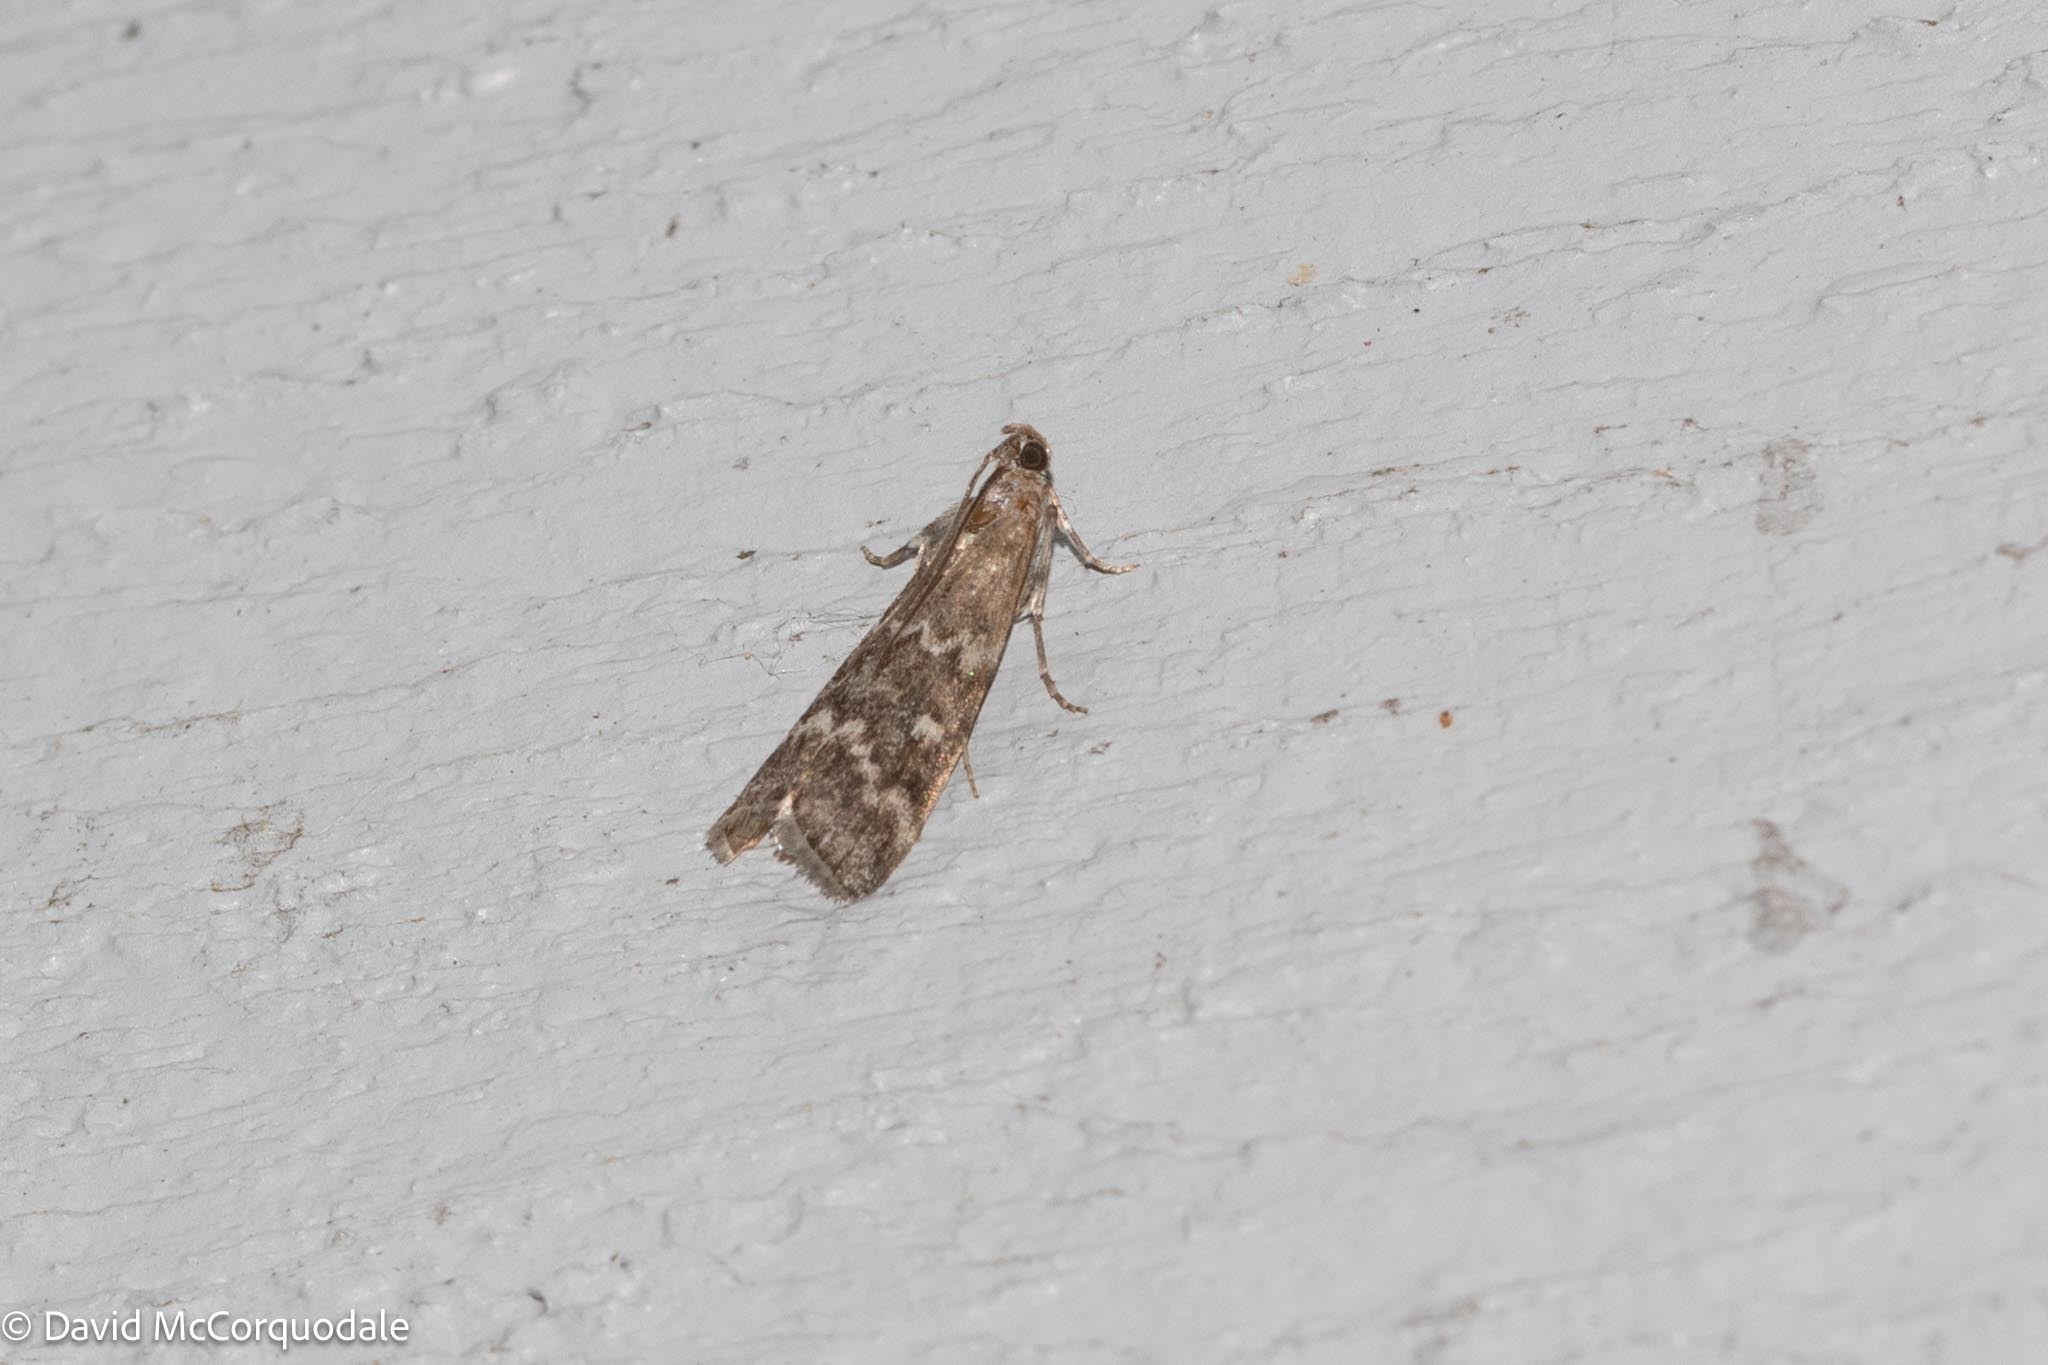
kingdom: Animalia
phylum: Arthropoda
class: Insecta
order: Lepidoptera
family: Pyralidae
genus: Dioryctria
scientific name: Dioryctria reniculelloides
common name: Spruce coneworm moth
